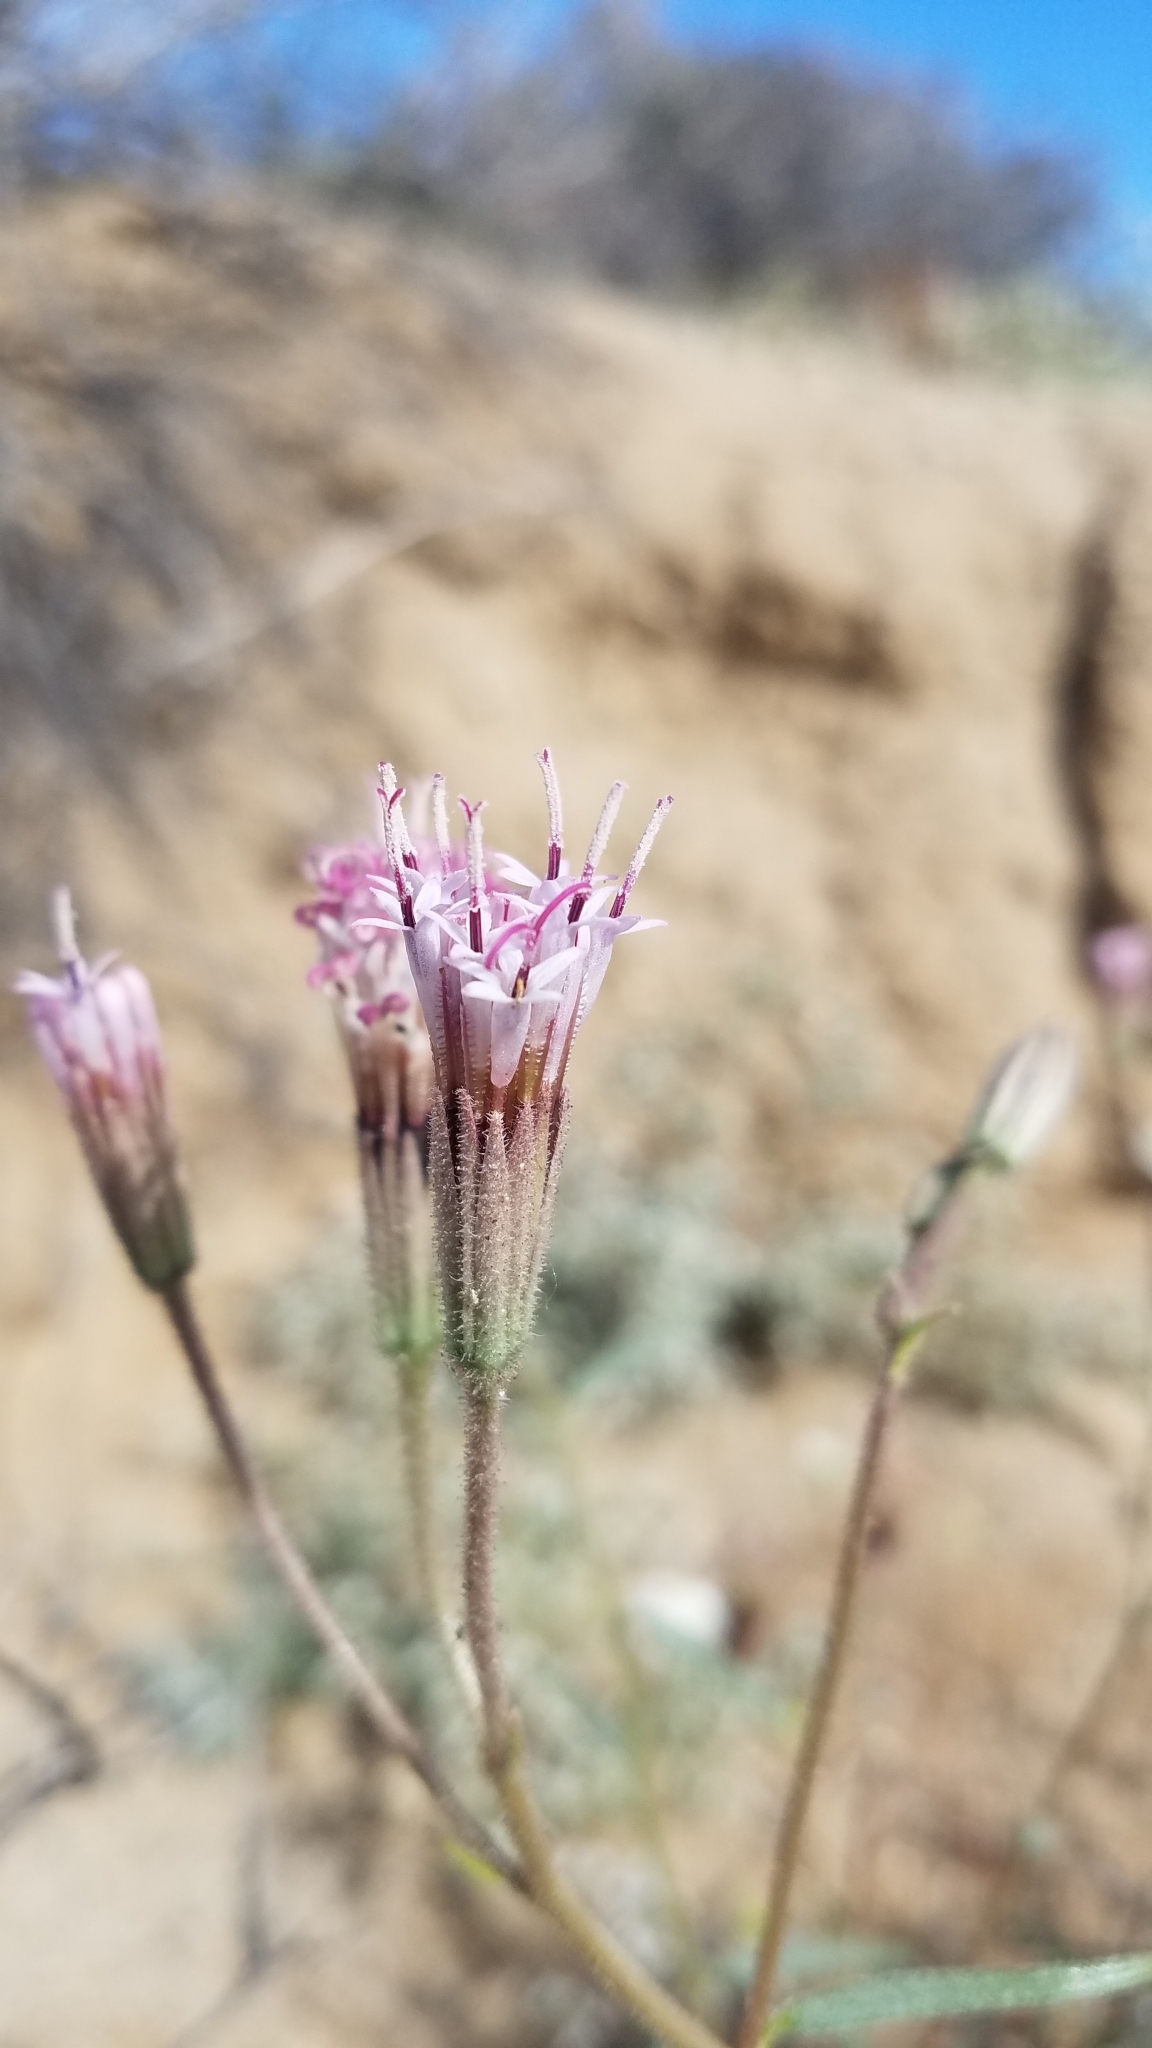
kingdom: Plantae
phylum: Tracheophyta
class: Magnoliopsida
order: Asterales
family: Asteraceae
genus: Palafoxia
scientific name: Palafoxia arida
